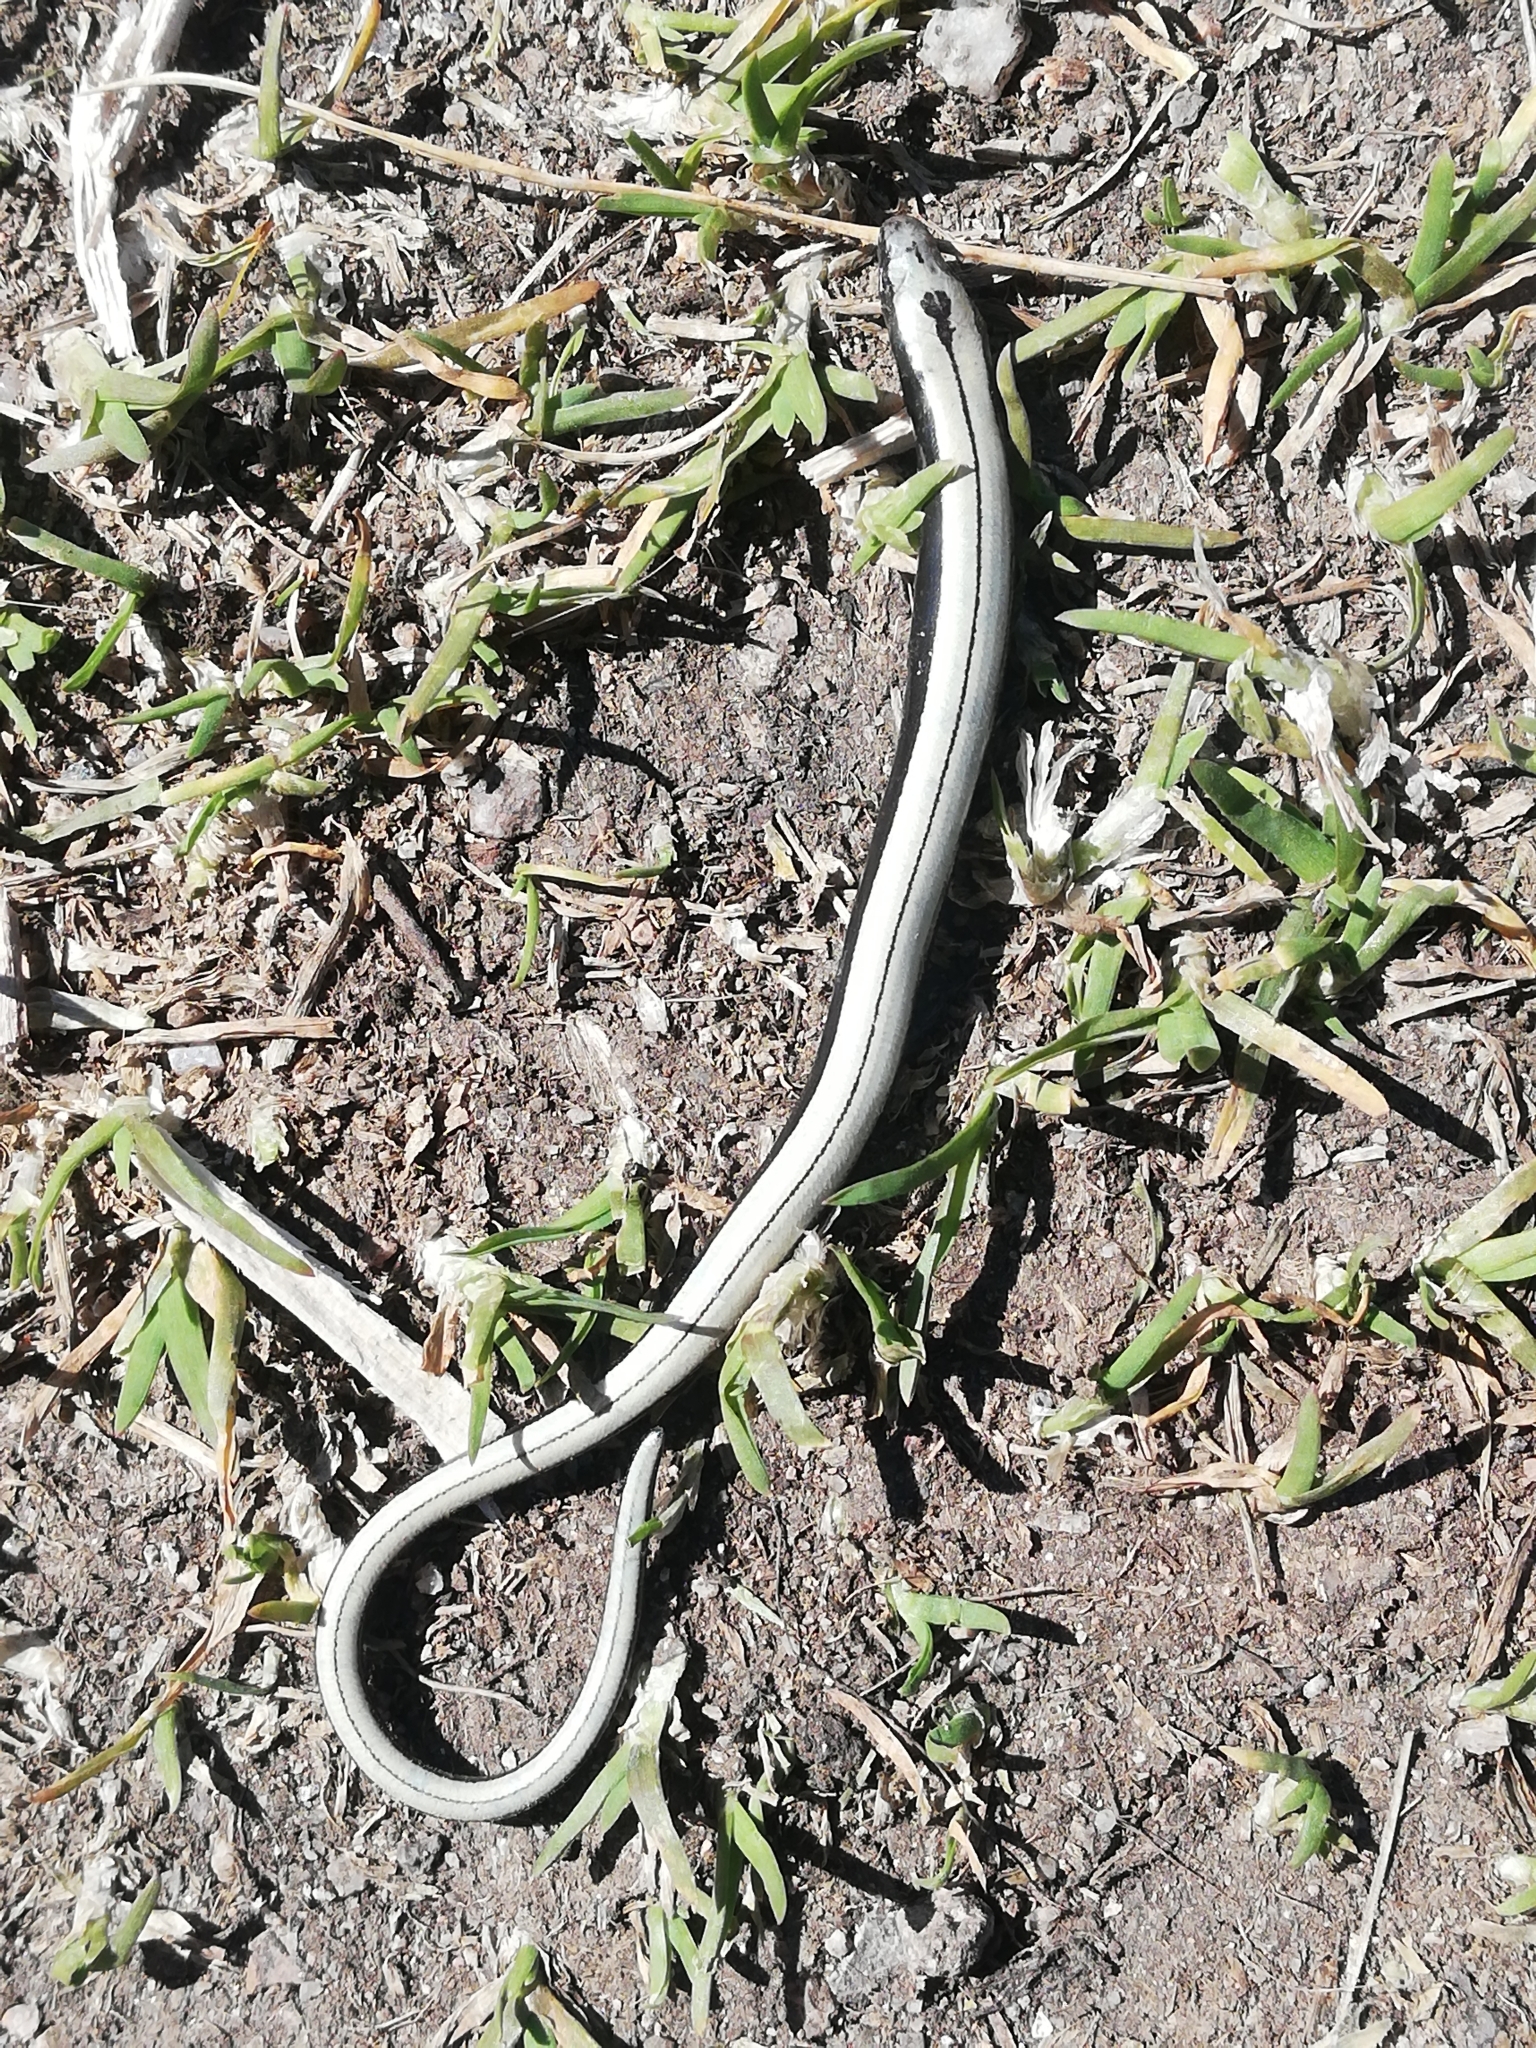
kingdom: Animalia
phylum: Chordata
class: Squamata
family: Anguidae
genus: Anguis
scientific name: Anguis fragilis
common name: Slow worm
